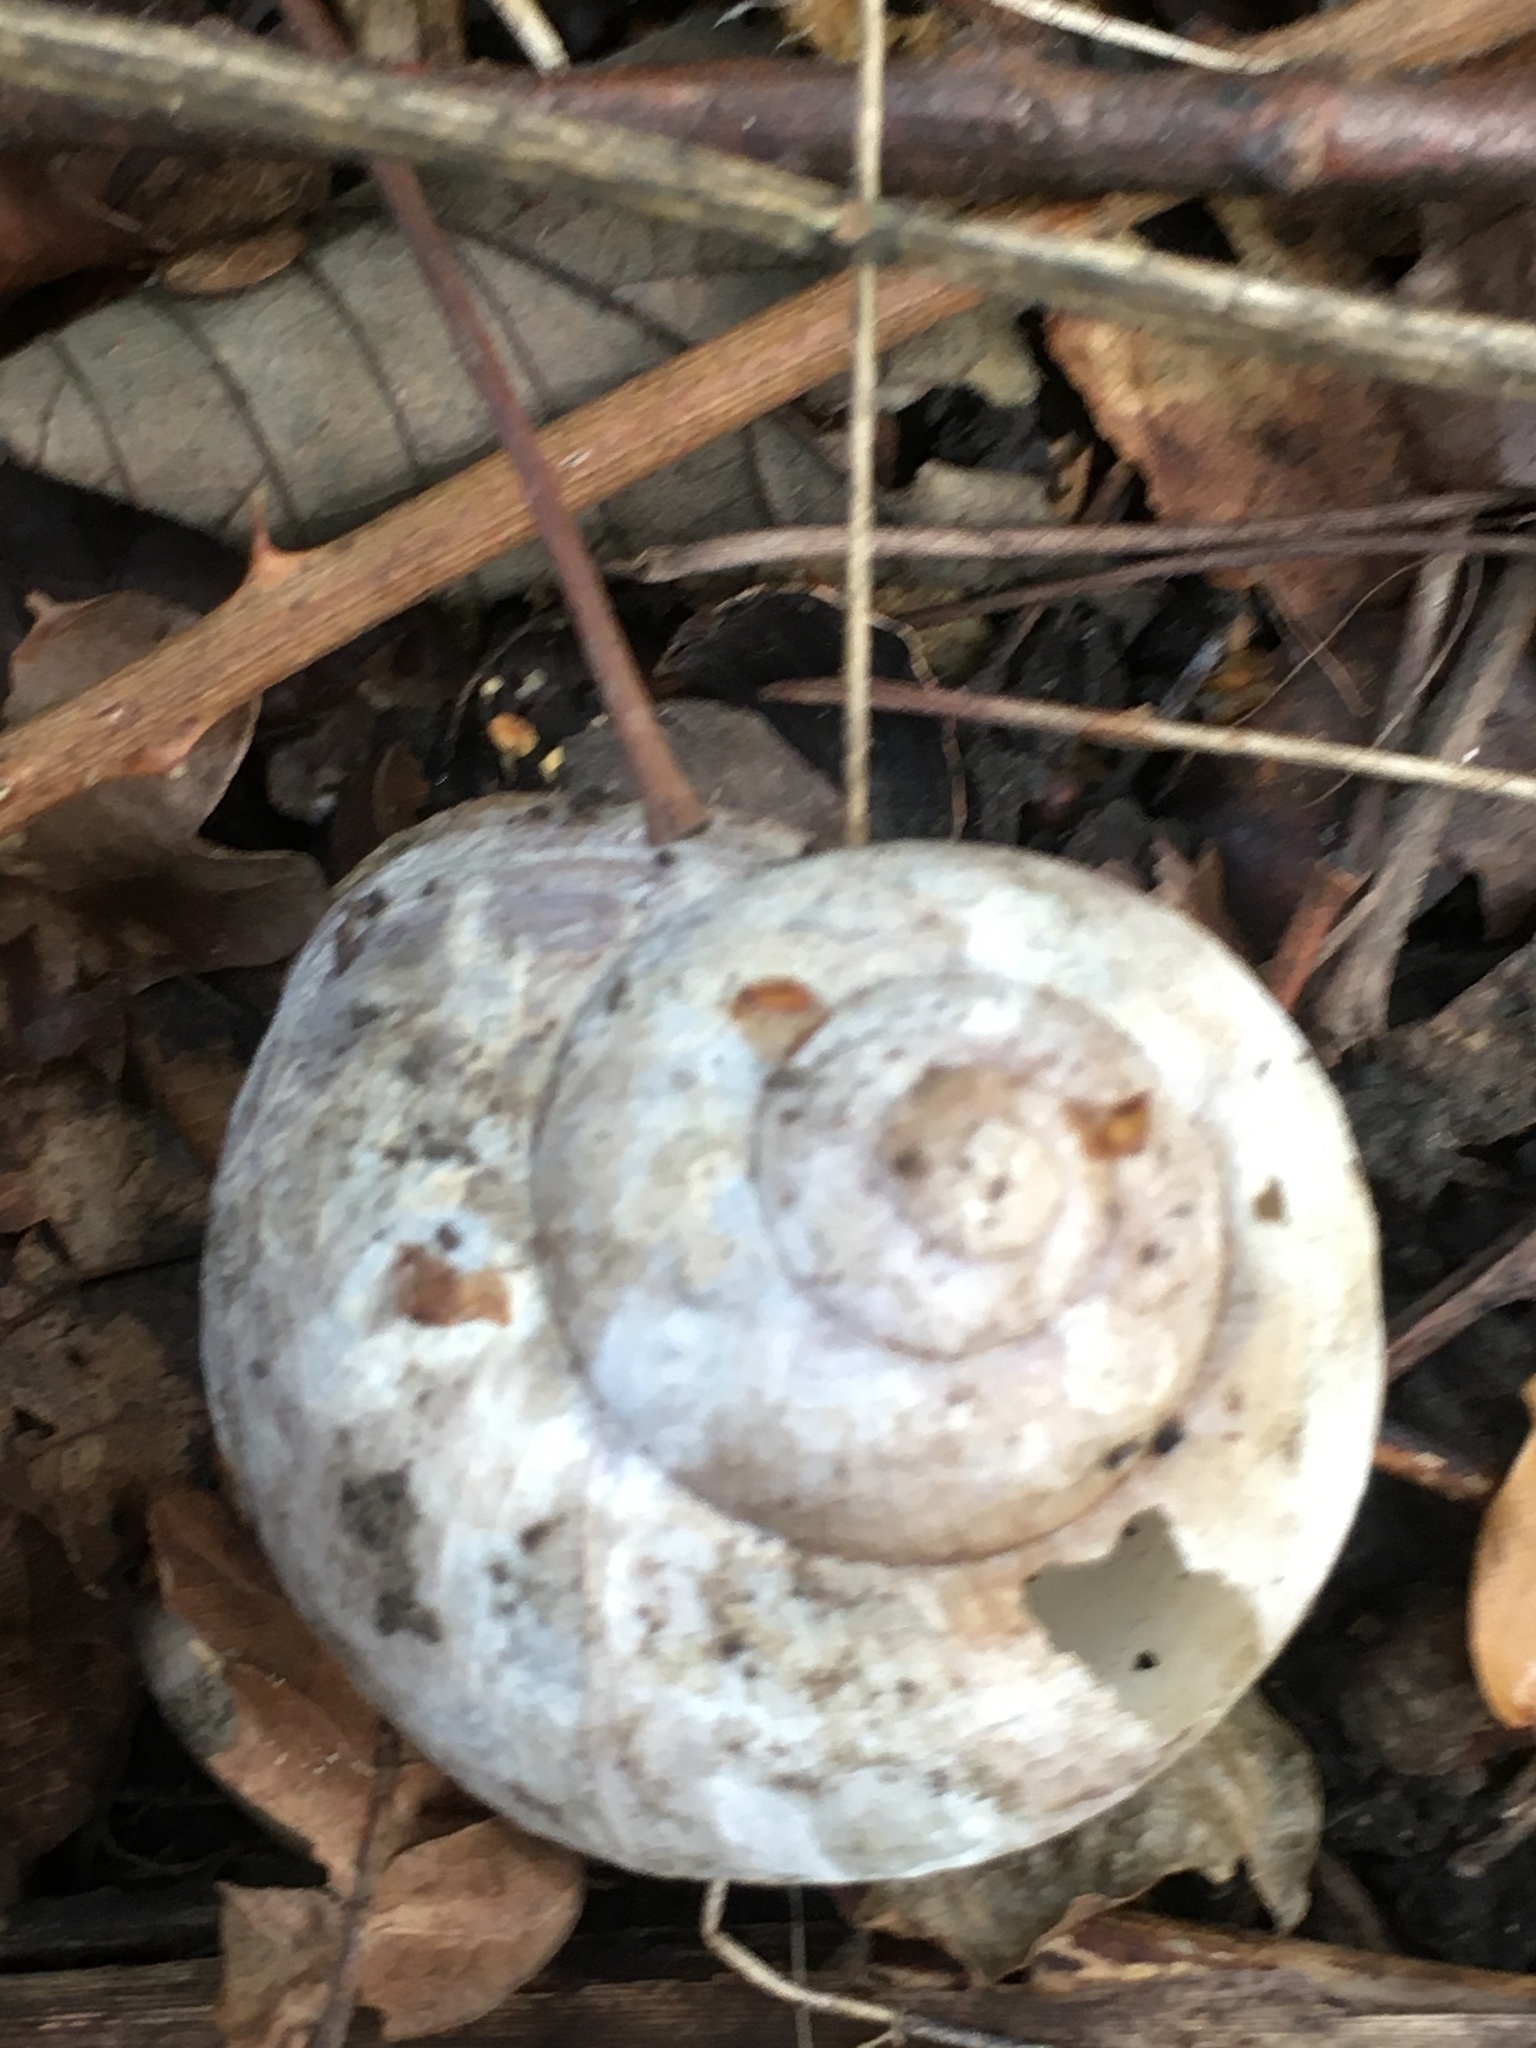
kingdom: Animalia
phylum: Mollusca
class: Gastropoda
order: Stylommatophora
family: Helicidae
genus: Helix
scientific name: Helix pomatia
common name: Roman snail
